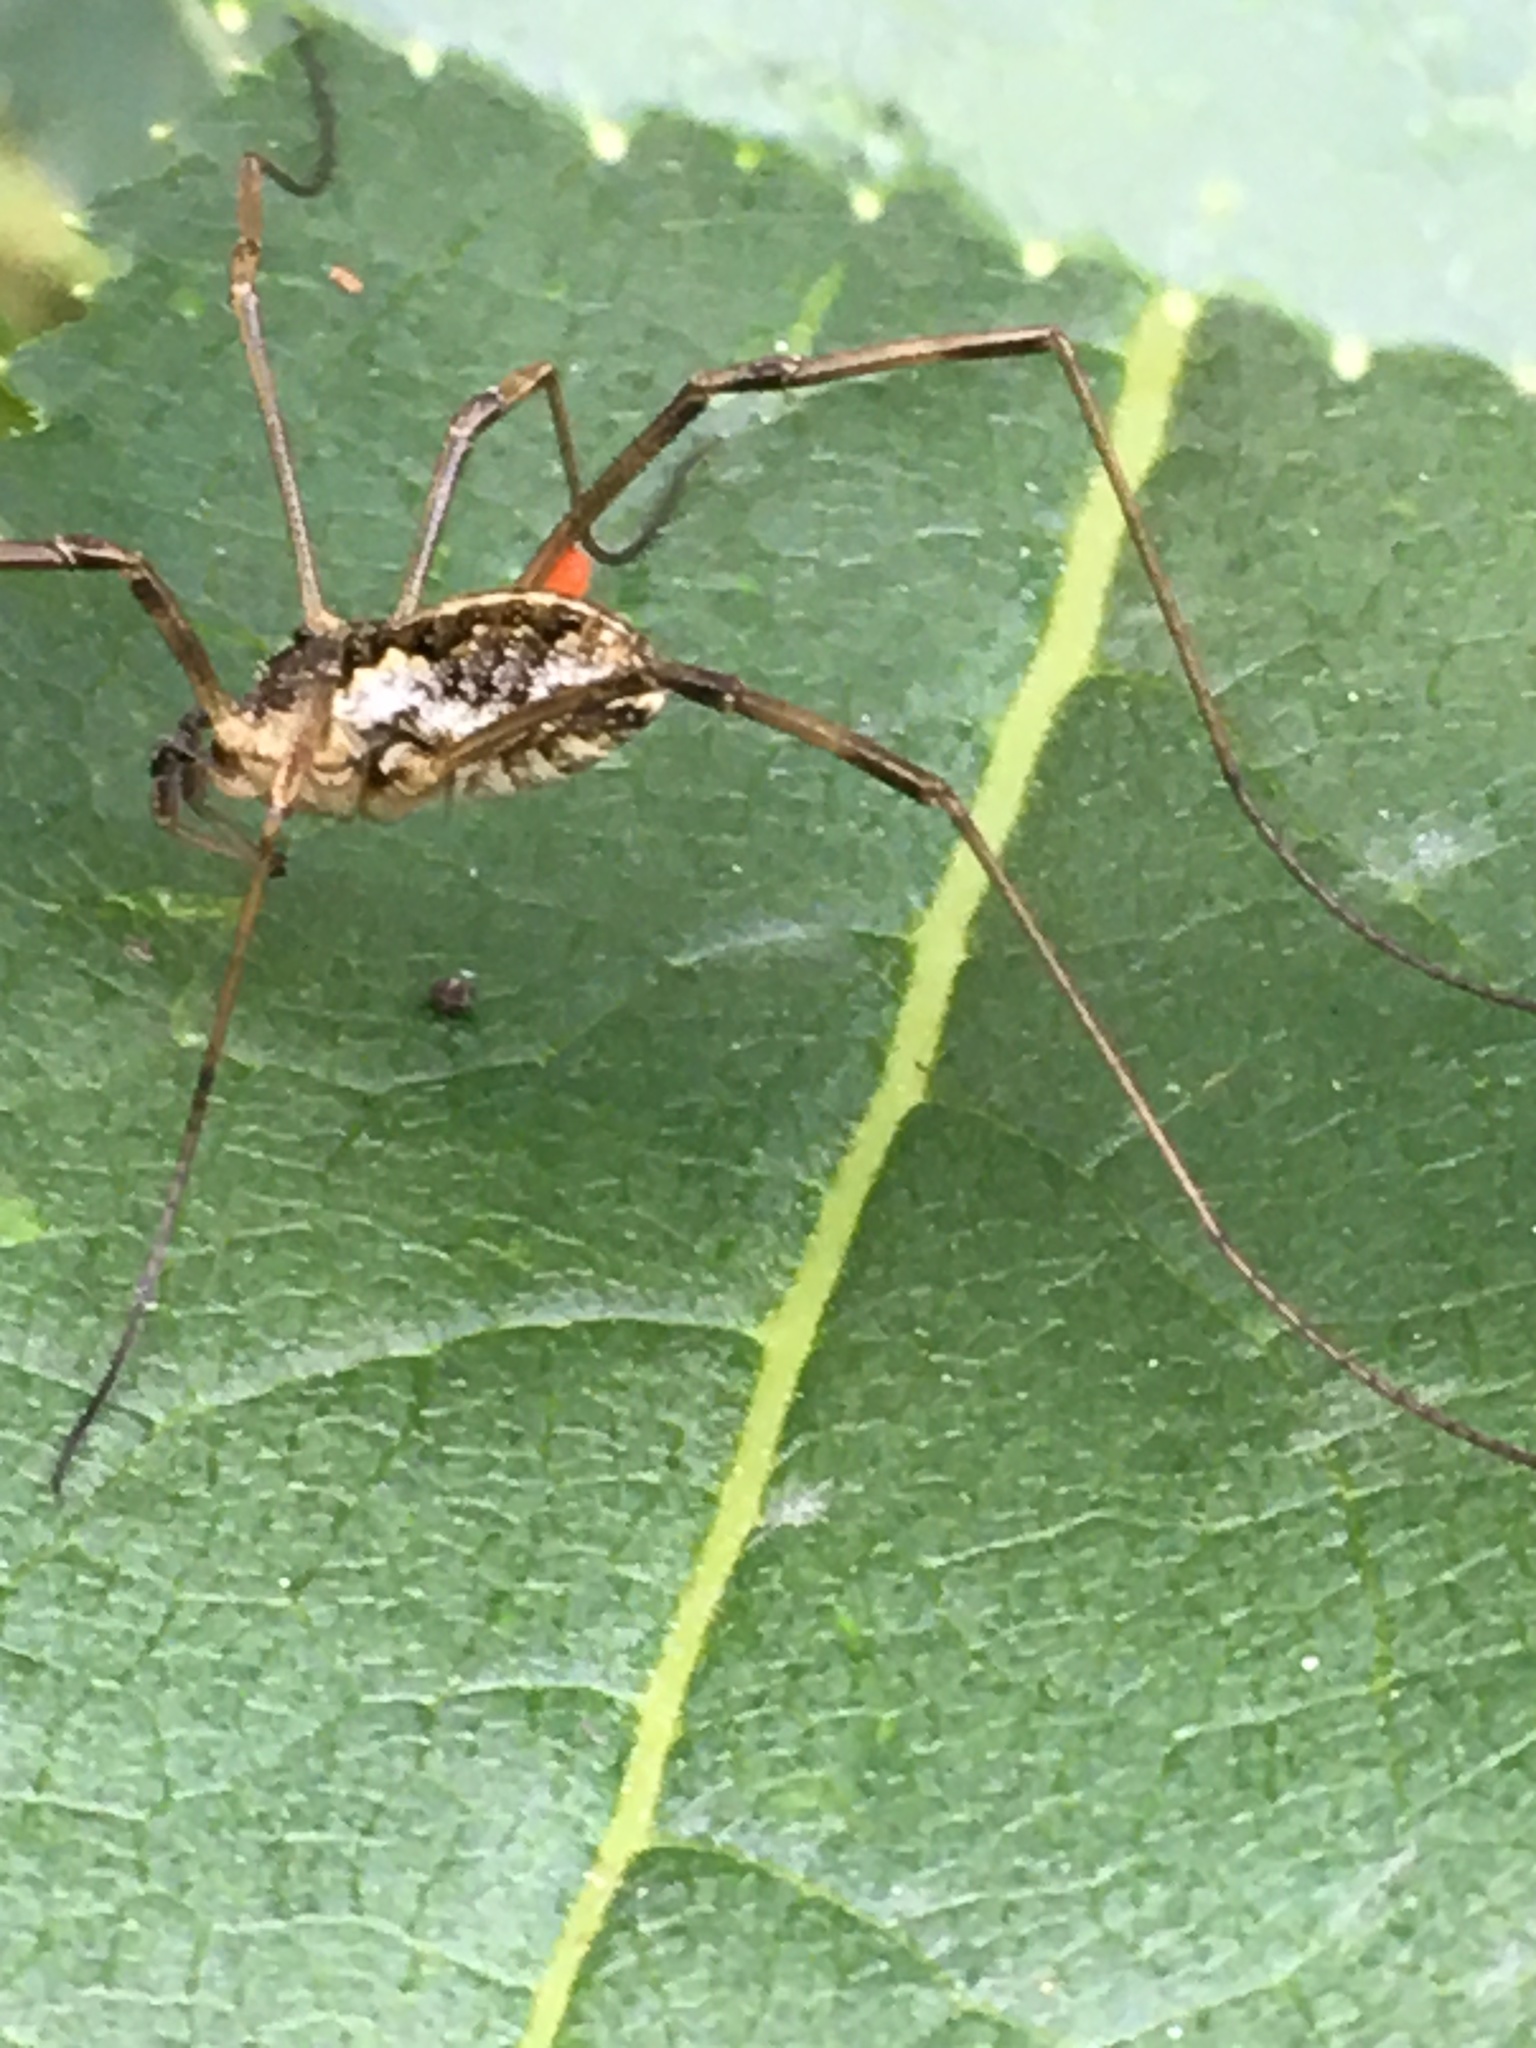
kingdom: Animalia
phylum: Arthropoda
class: Arachnida
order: Opiliones
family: Phalangiidae
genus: Mitopus
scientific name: Mitopus morio
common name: Saddleback harvestman
